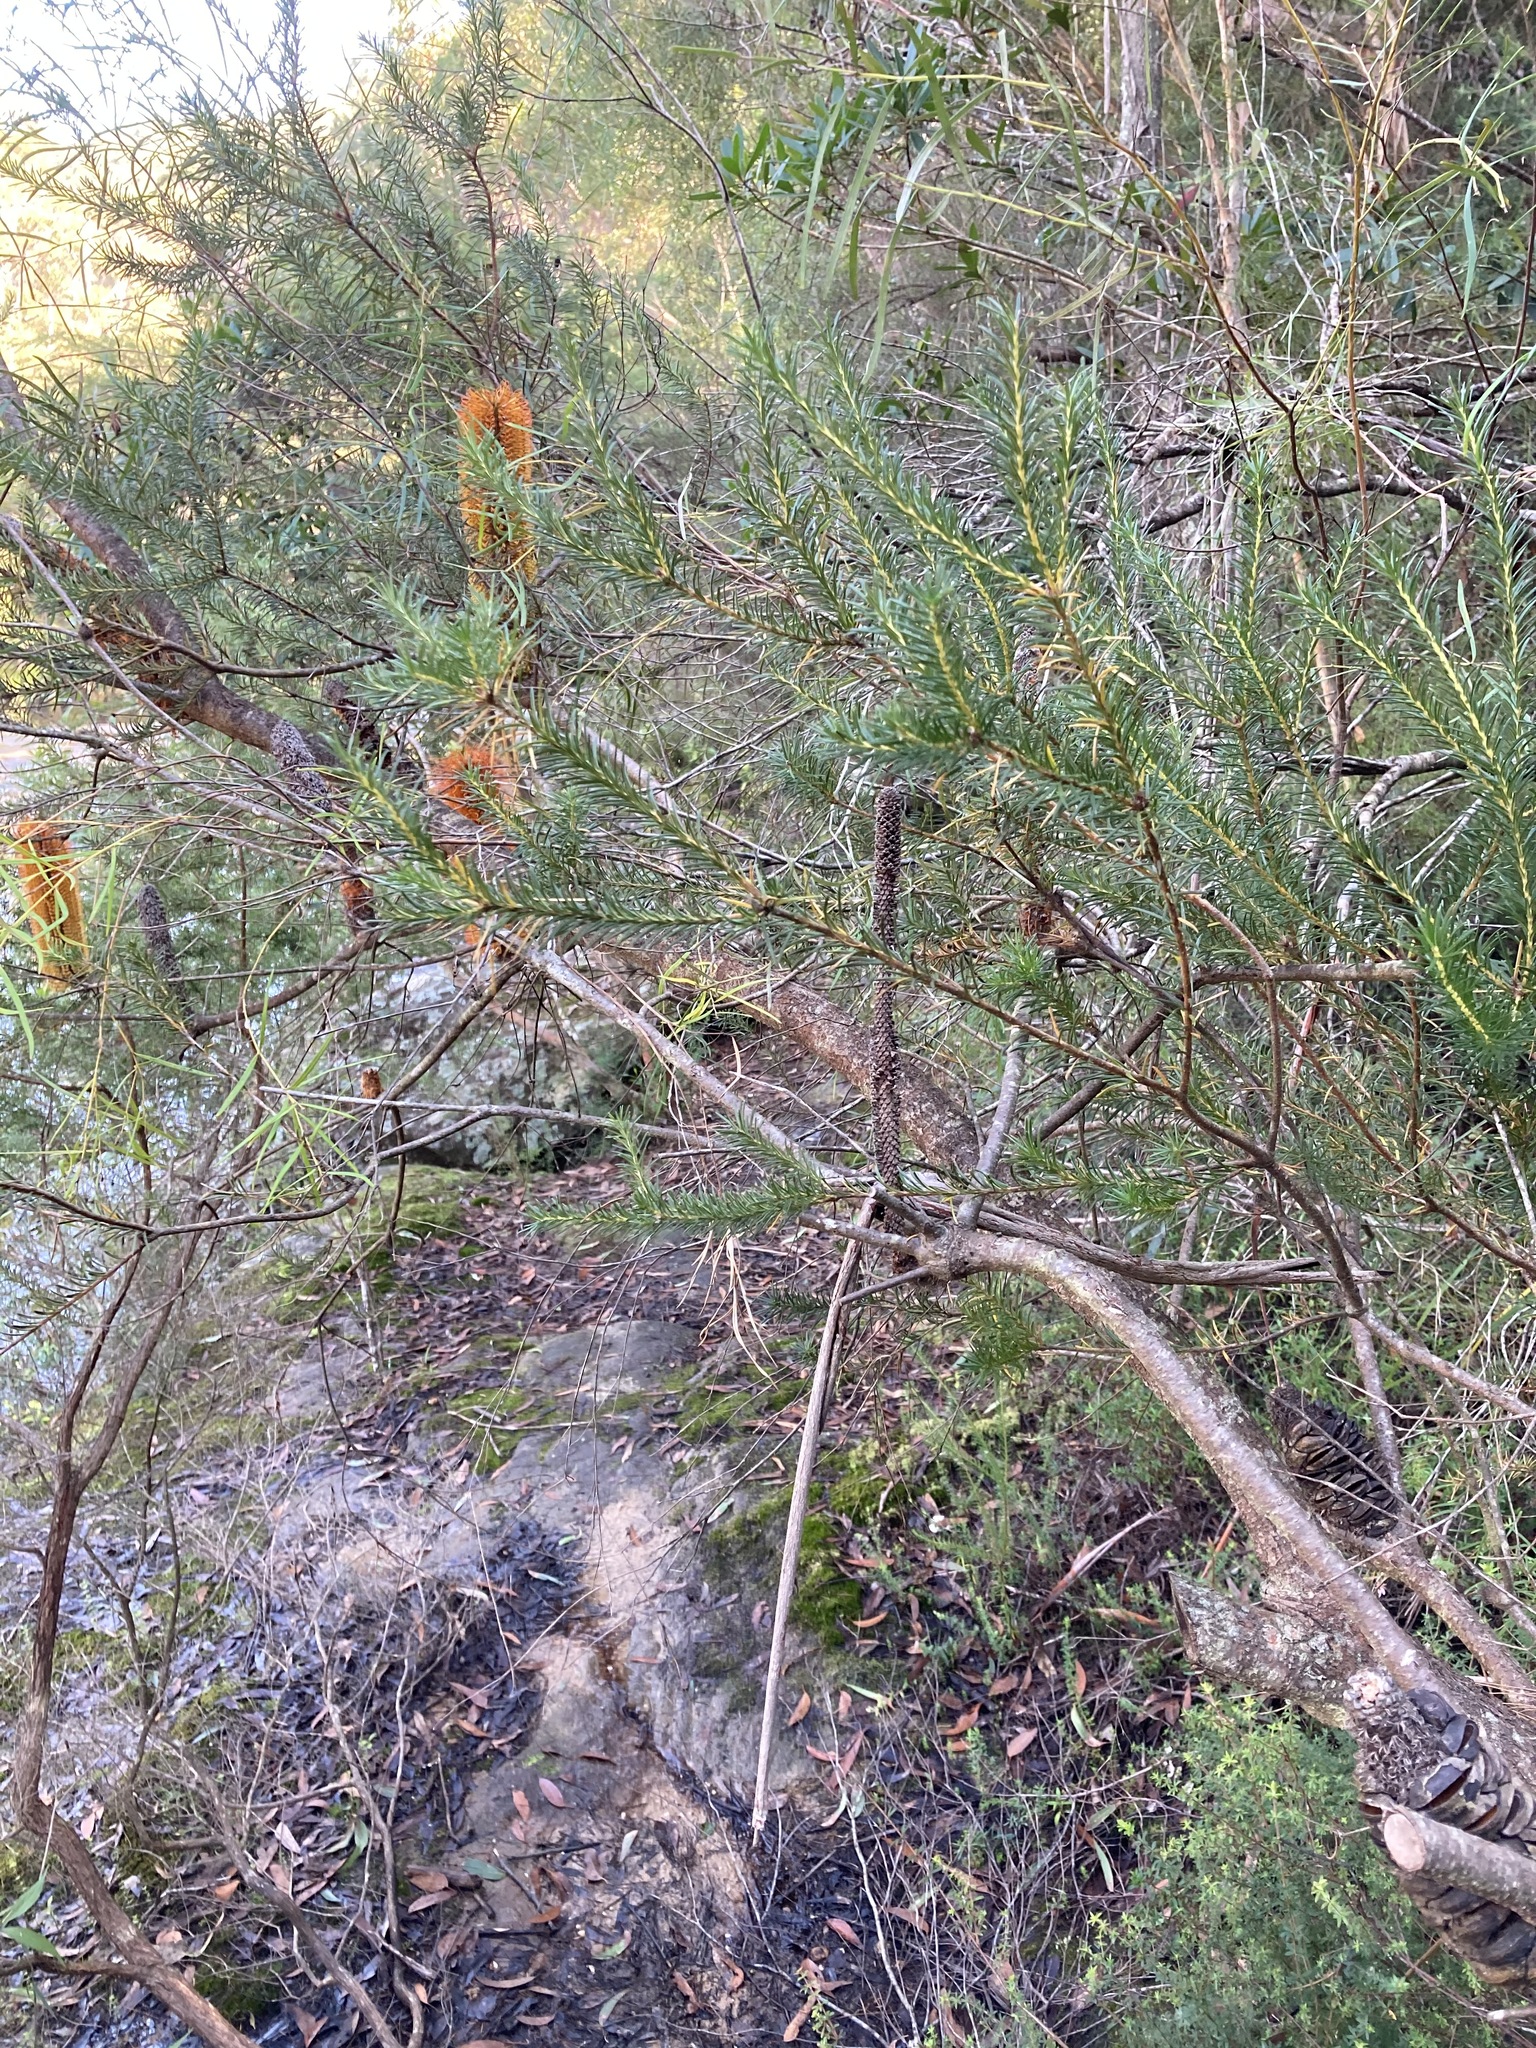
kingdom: Plantae
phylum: Tracheophyta
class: Magnoliopsida
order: Proteales
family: Proteaceae
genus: Banksia
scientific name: Banksia ericifolia
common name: Heath-leaf banksia
